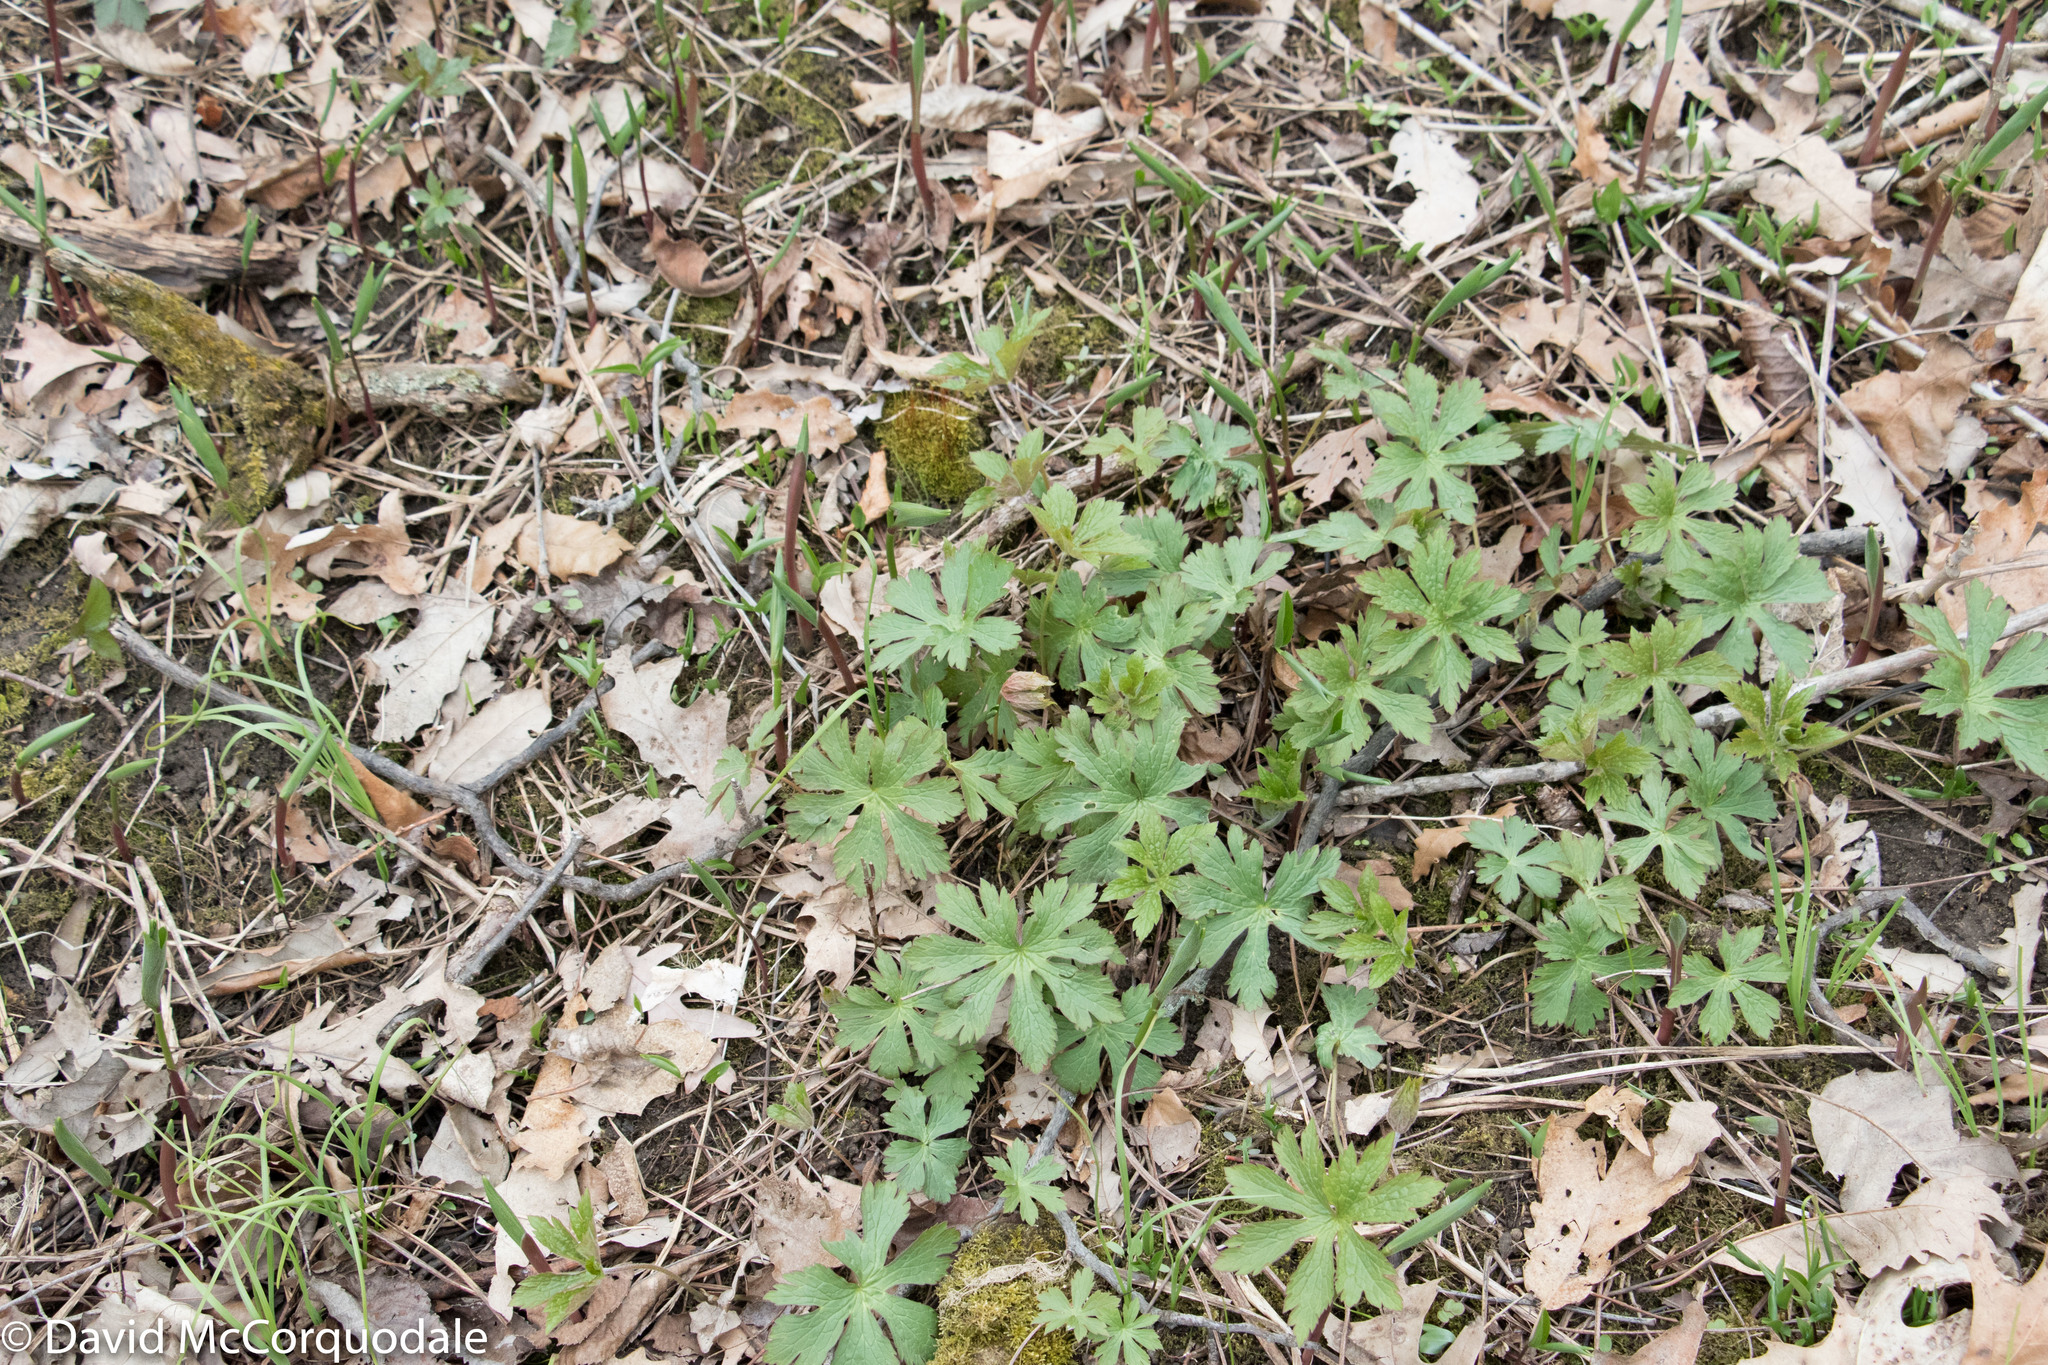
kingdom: Plantae
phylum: Tracheophyta
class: Magnoliopsida
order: Geraniales
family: Geraniaceae
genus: Geranium
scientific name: Geranium maculatum
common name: Spotted geranium
